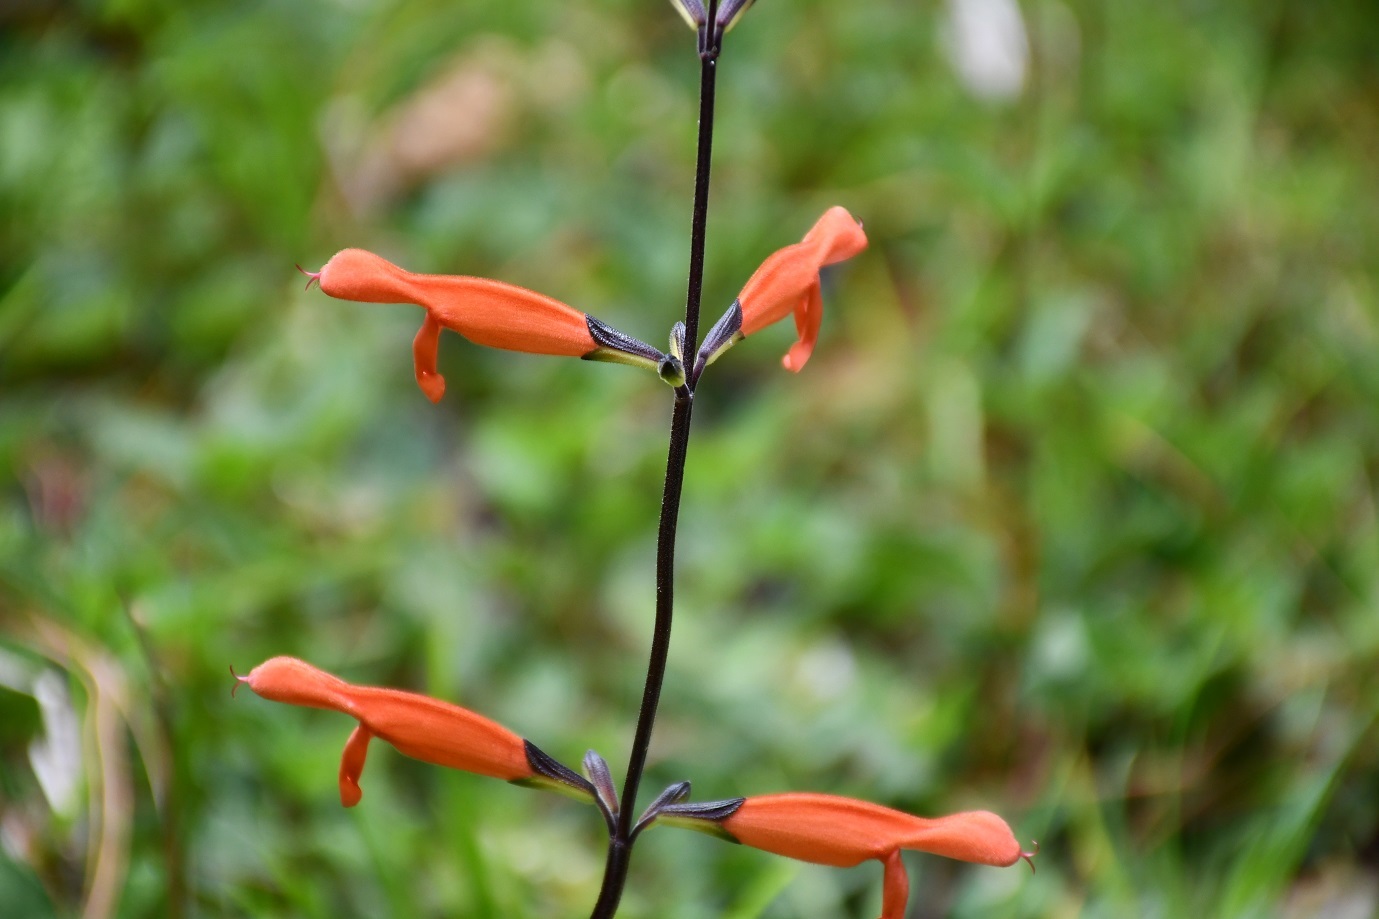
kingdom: Plantae
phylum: Tracheophyta
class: Magnoliopsida
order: Lamiales
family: Lamiaceae
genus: Salvia
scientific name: Salvia stolonifera
